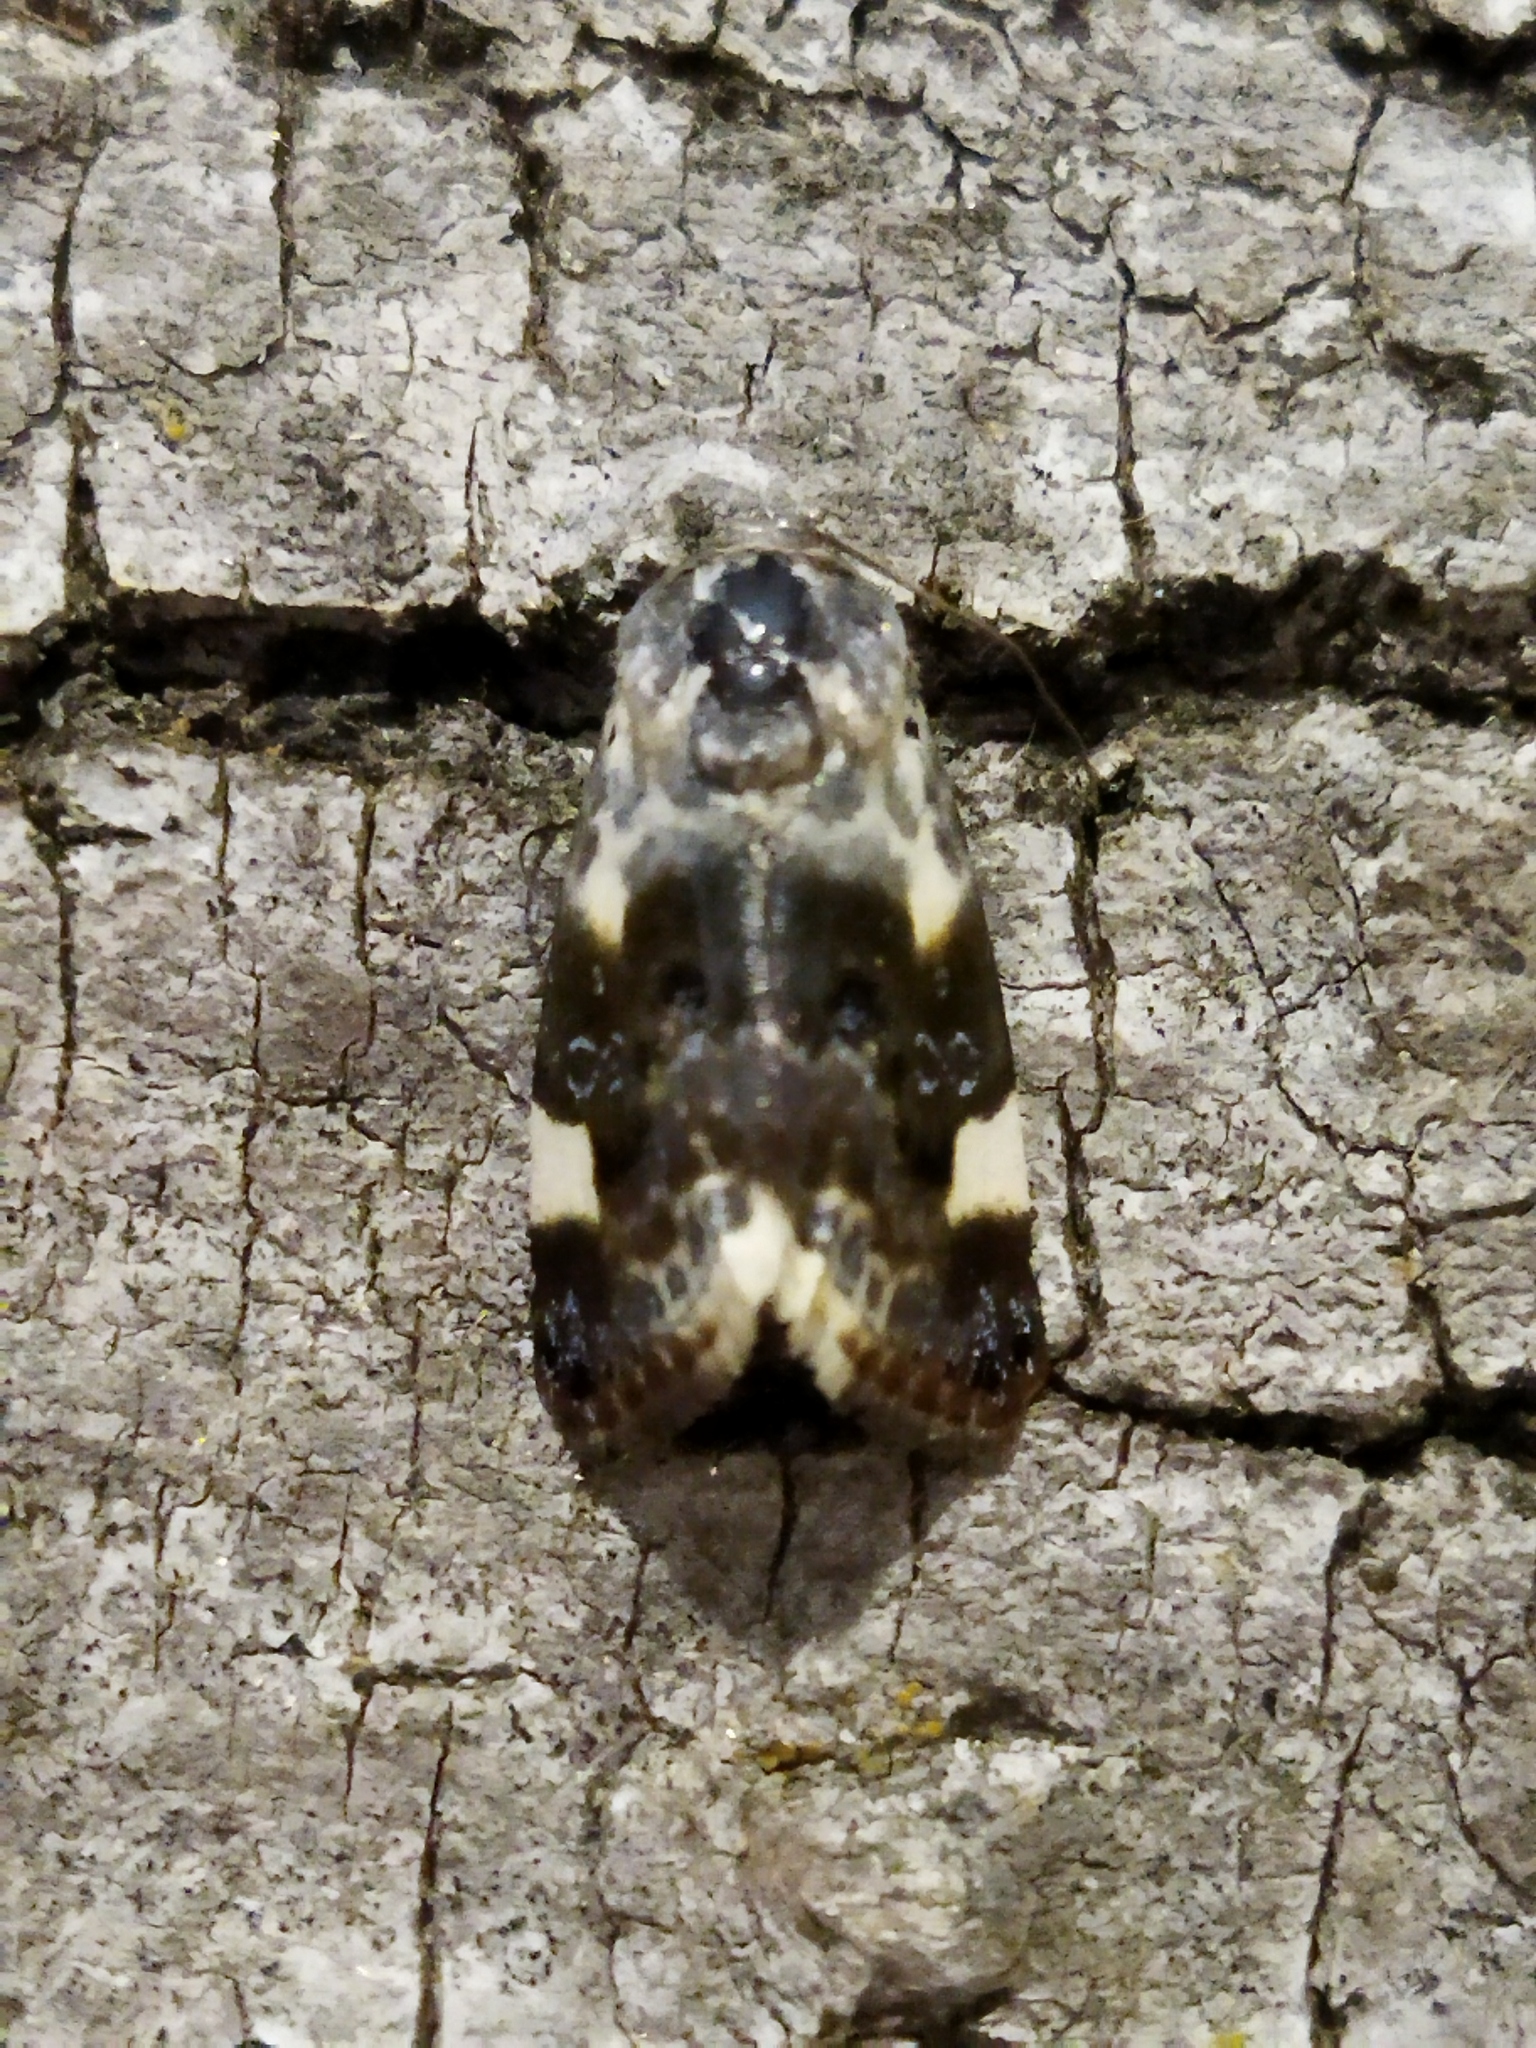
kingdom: Animalia
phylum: Arthropoda
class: Insecta
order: Lepidoptera
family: Noctuidae
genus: Acontia
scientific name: Acontia lucida
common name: Pale shoulder
